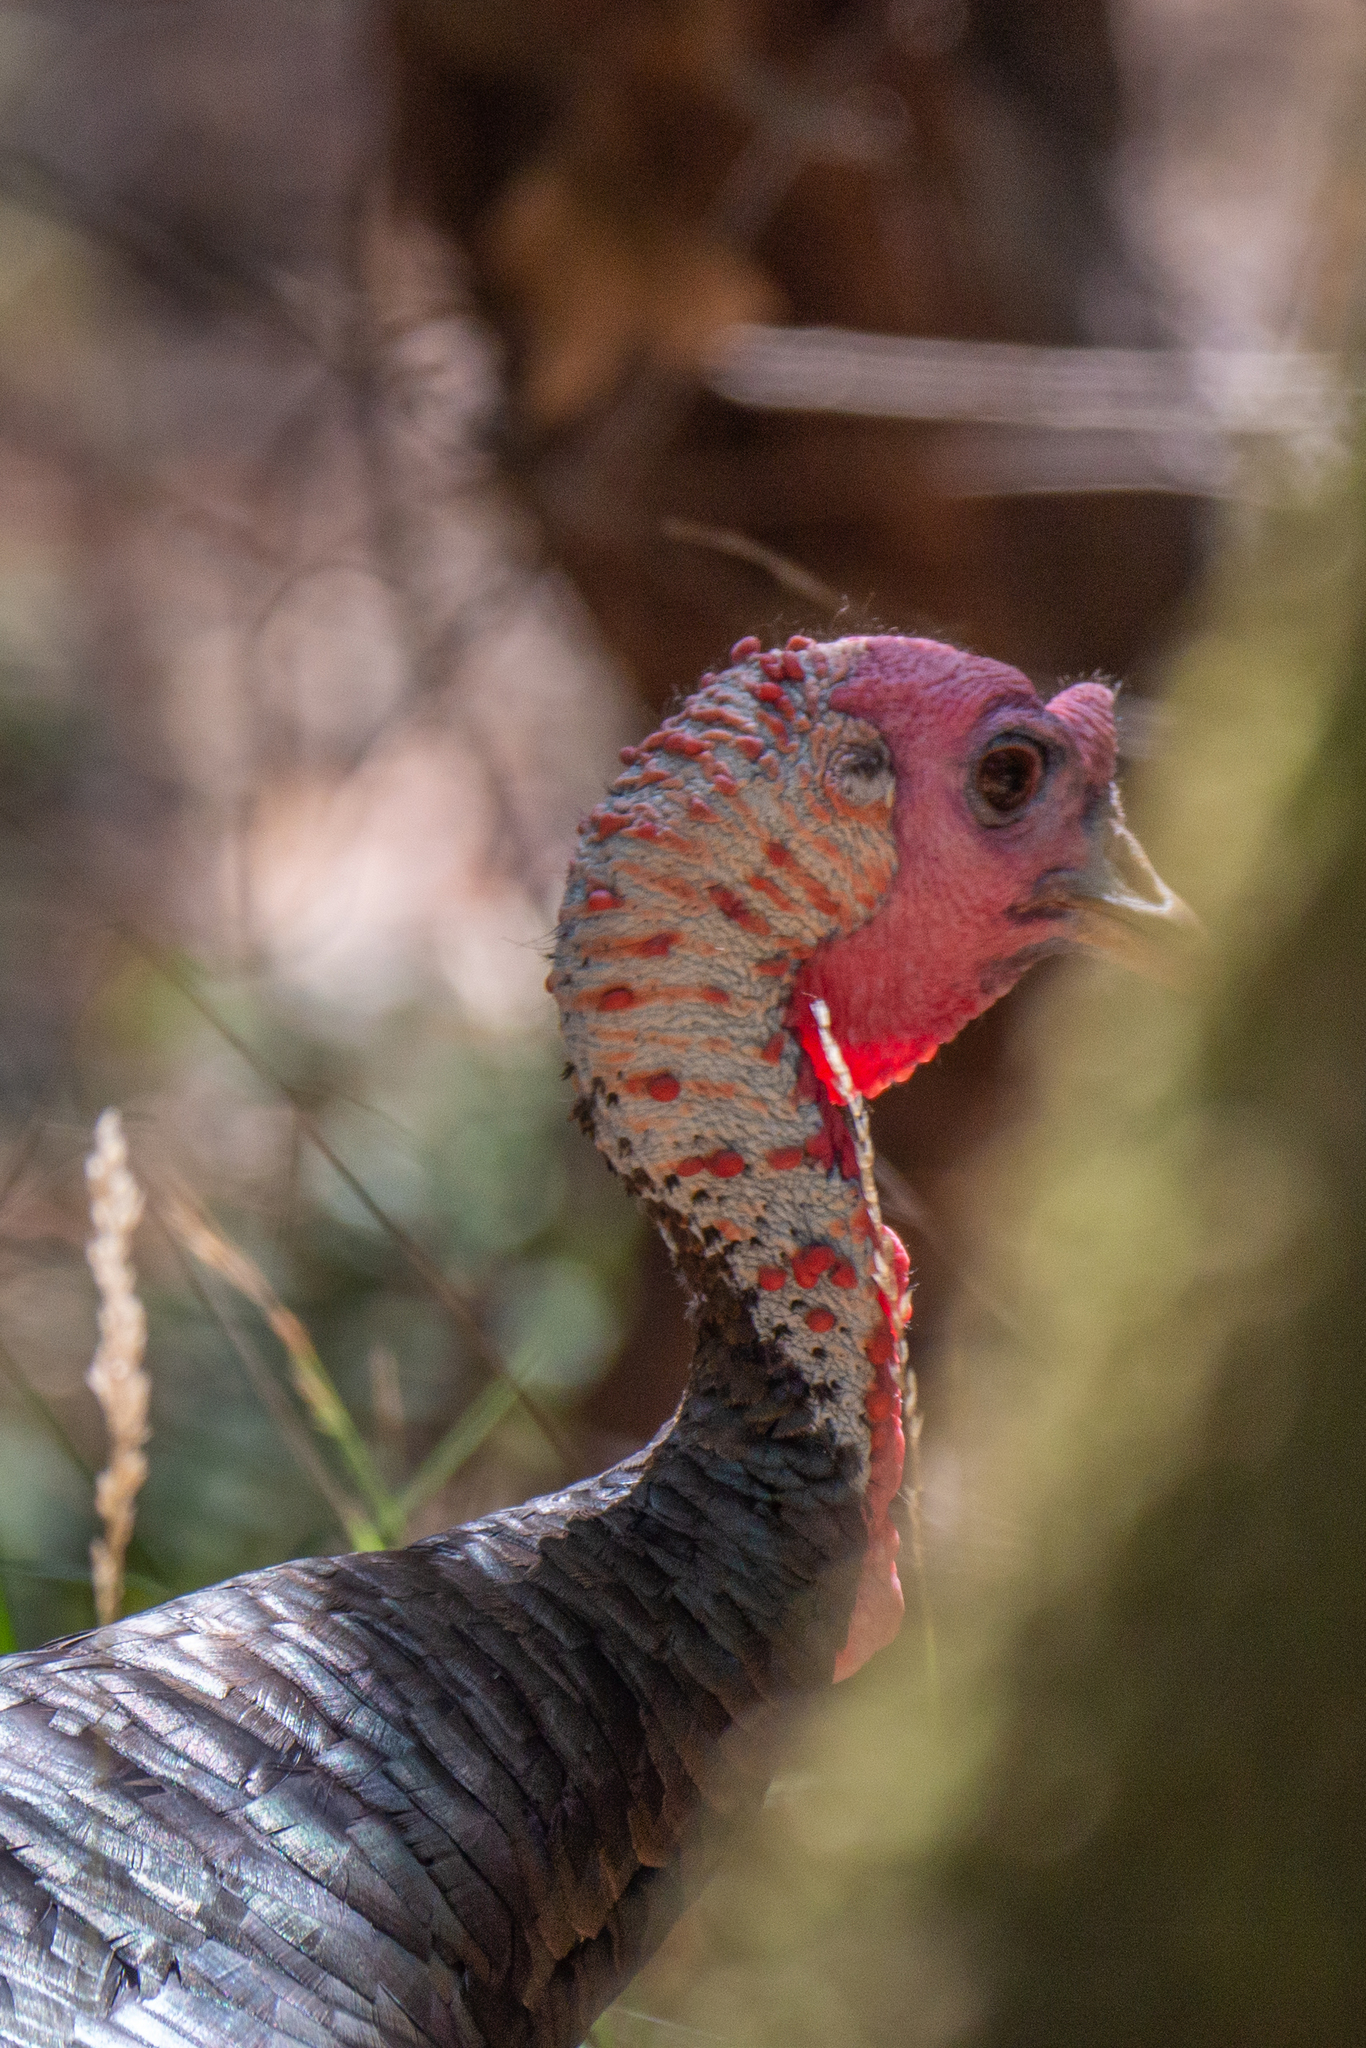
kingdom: Animalia
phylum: Chordata
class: Aves
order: Galliformes
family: Phasianidae
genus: Meleagris
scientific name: Meleagris gallopavo
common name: Wild turkey
